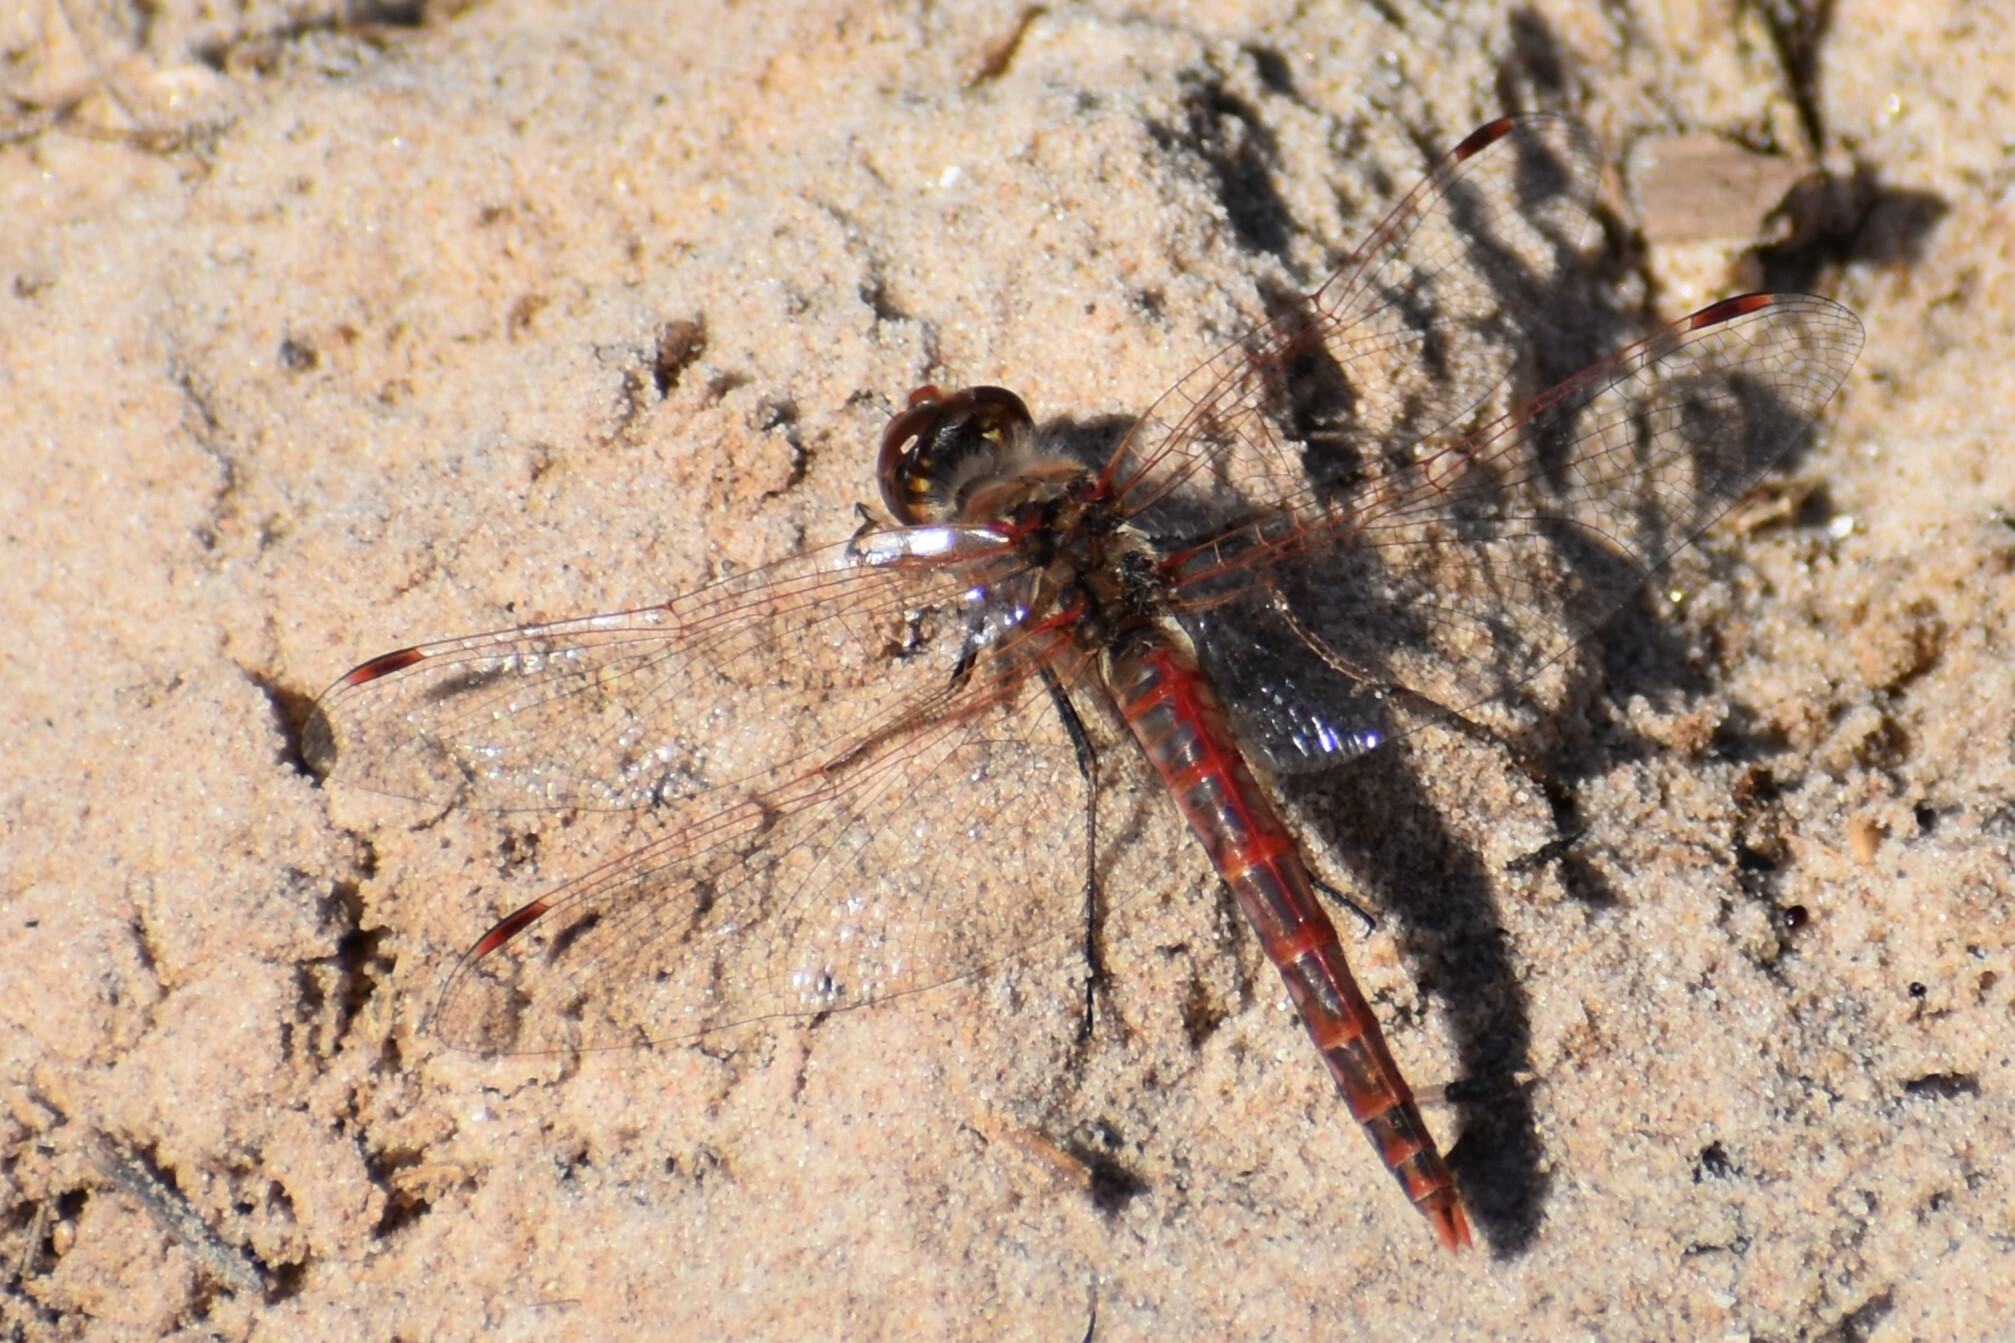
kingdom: Animalia
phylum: Arthropoda
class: Insecta
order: Odonata
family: Libellulidae
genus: Sympetrum
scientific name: Sympetrum corruptum
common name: Variegated meadowhawk
